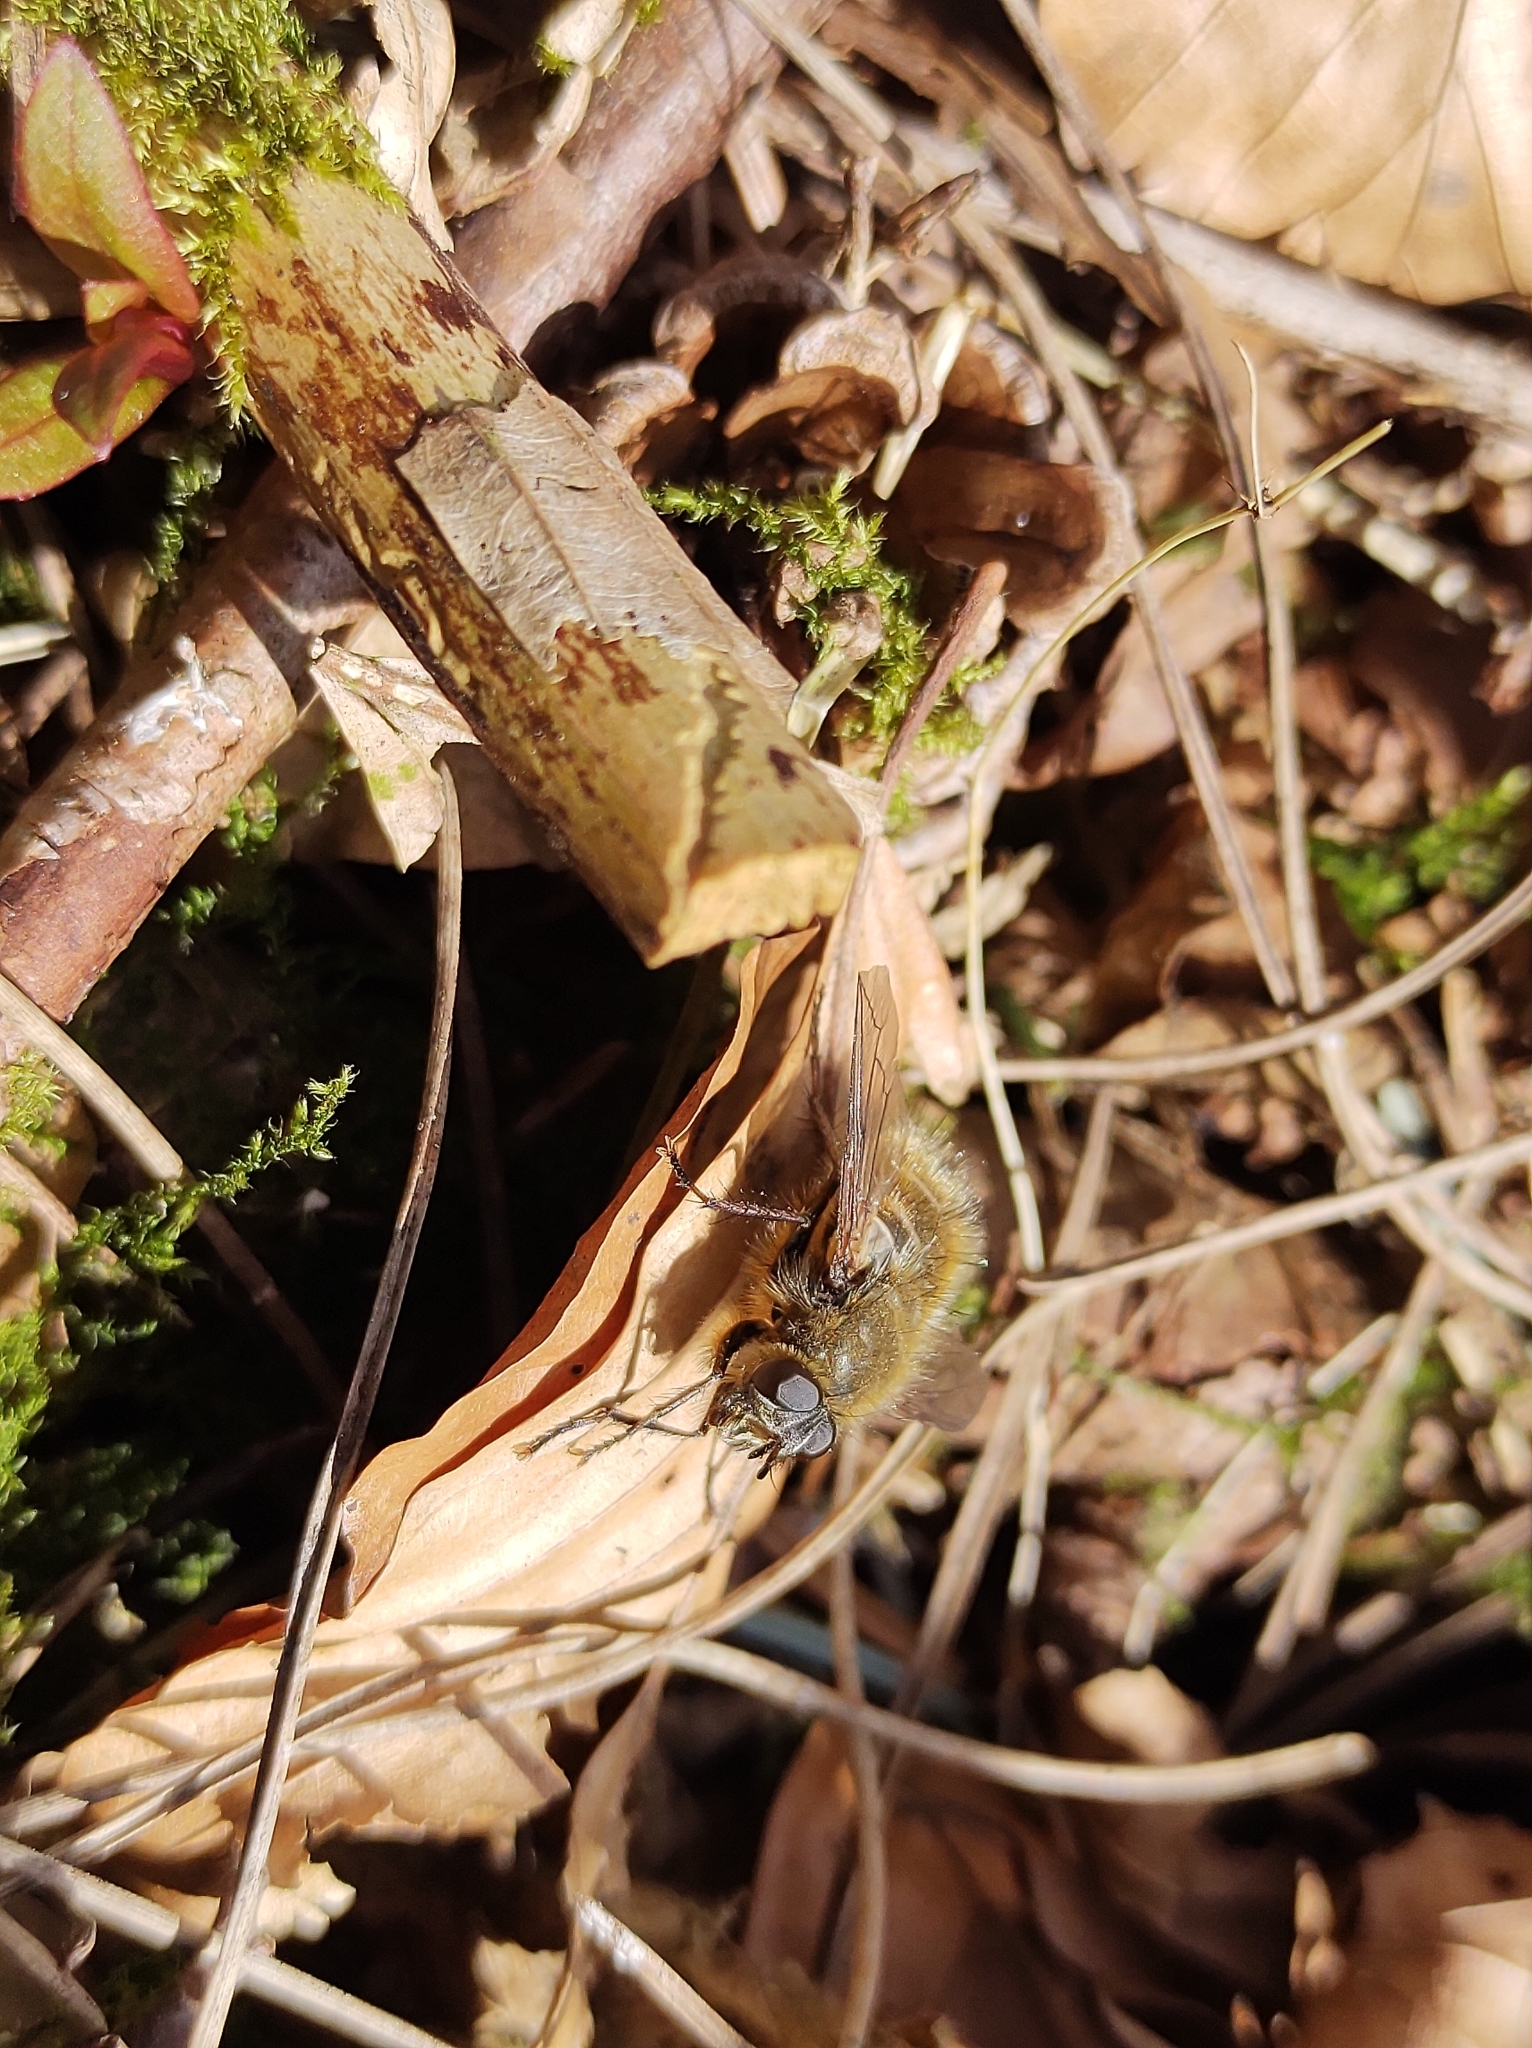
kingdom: Animalia
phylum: Arthropoda
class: Insecta
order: Diptera
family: Tachinidae
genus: Tachina
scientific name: Tachina ursina
